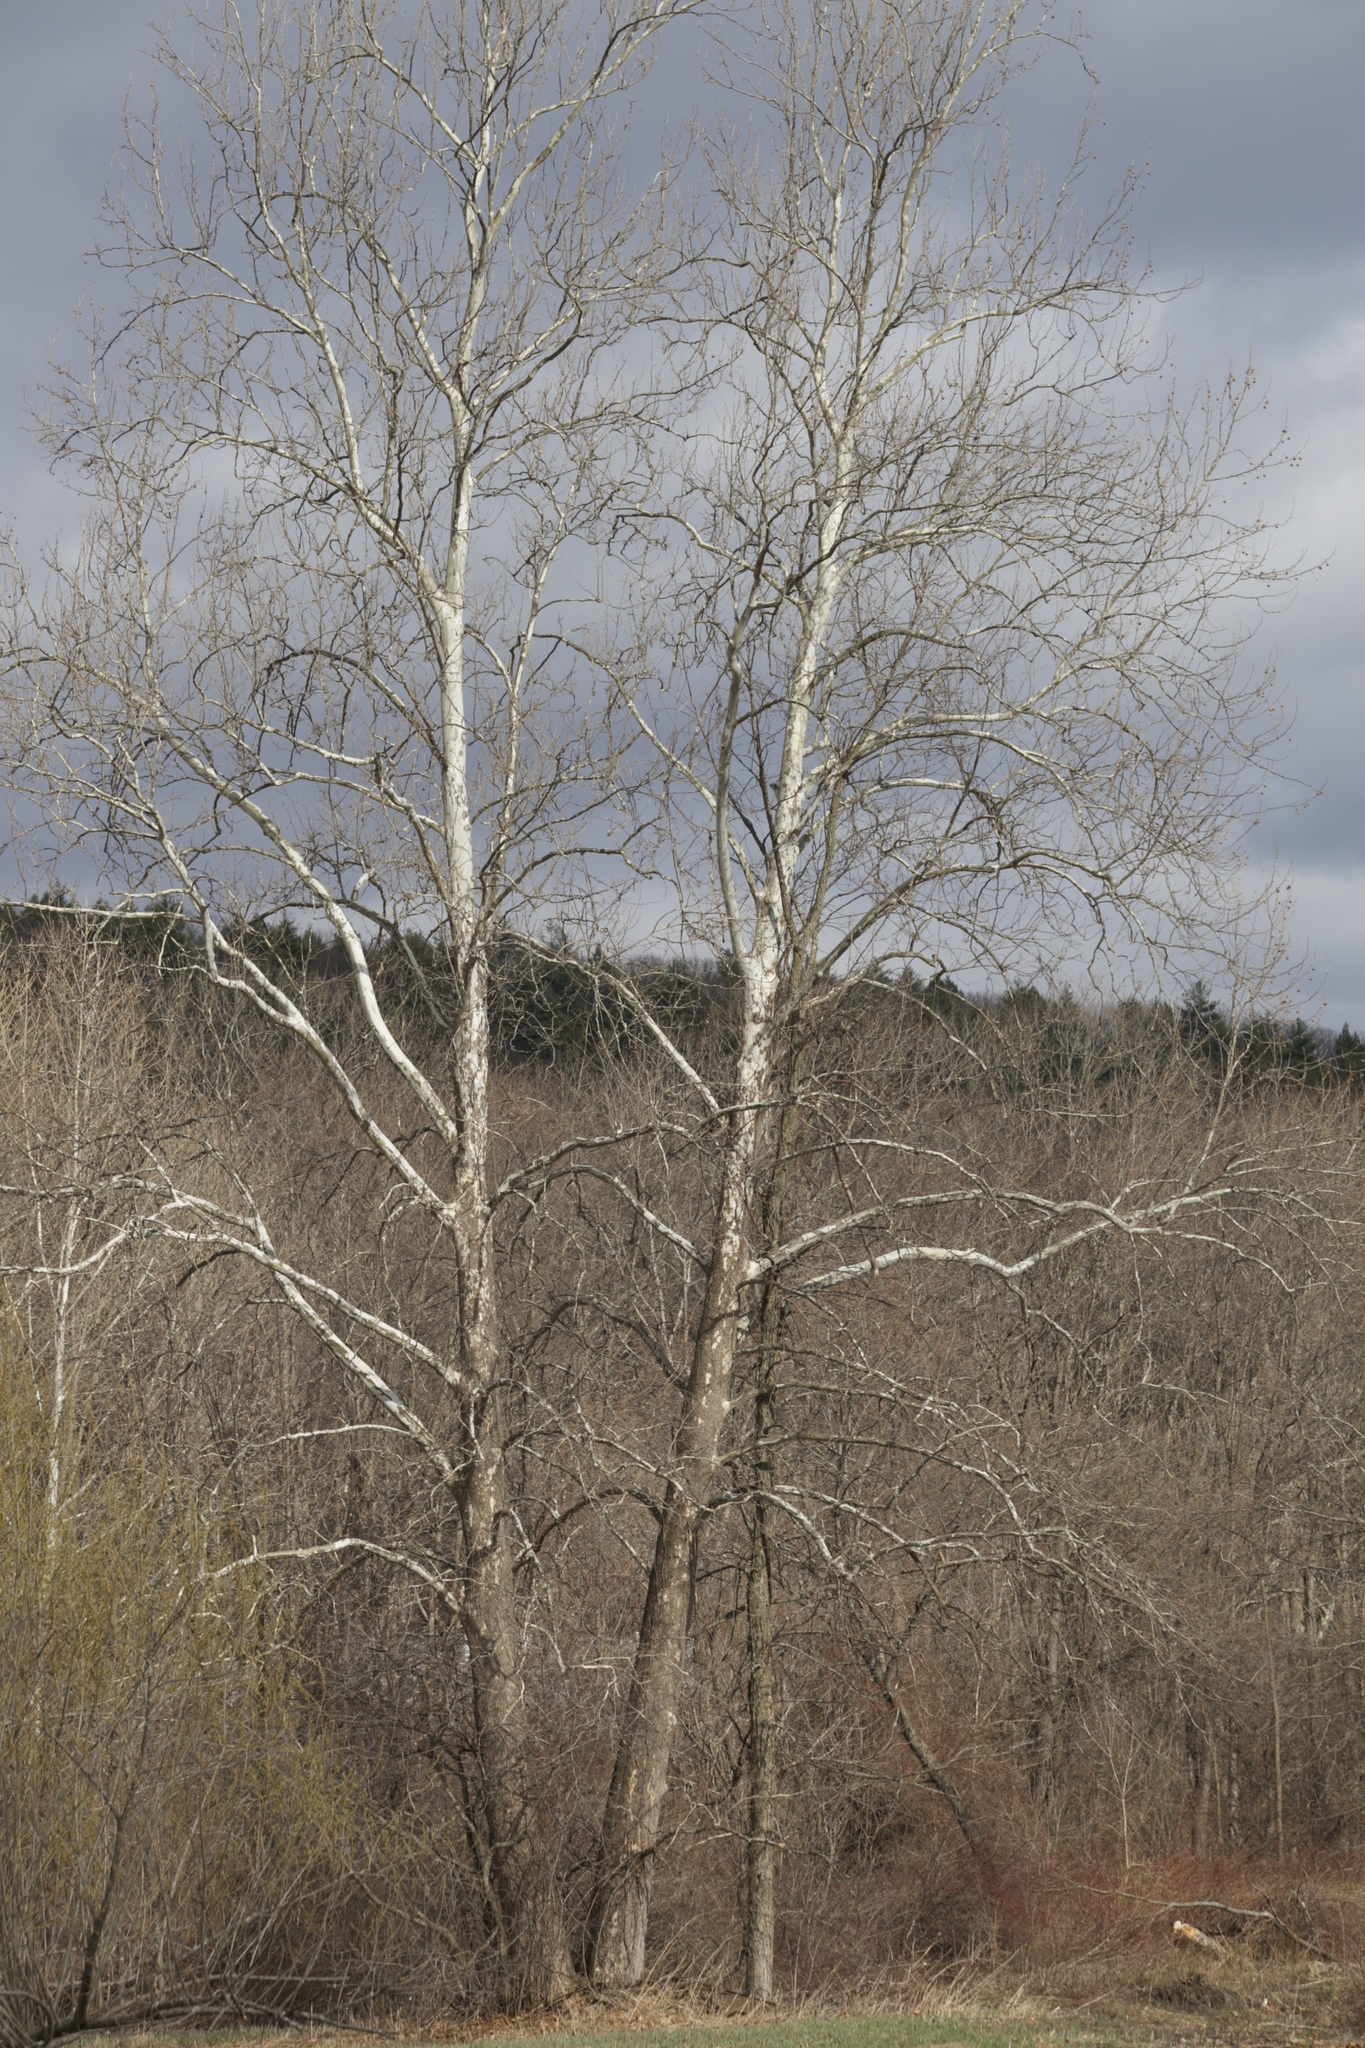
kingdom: Plantae
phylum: Tracheophyta
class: Magnoliopsida
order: Proteales
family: Platanaceae
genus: Platanus
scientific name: Platanus occidentalis
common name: American sycamore
